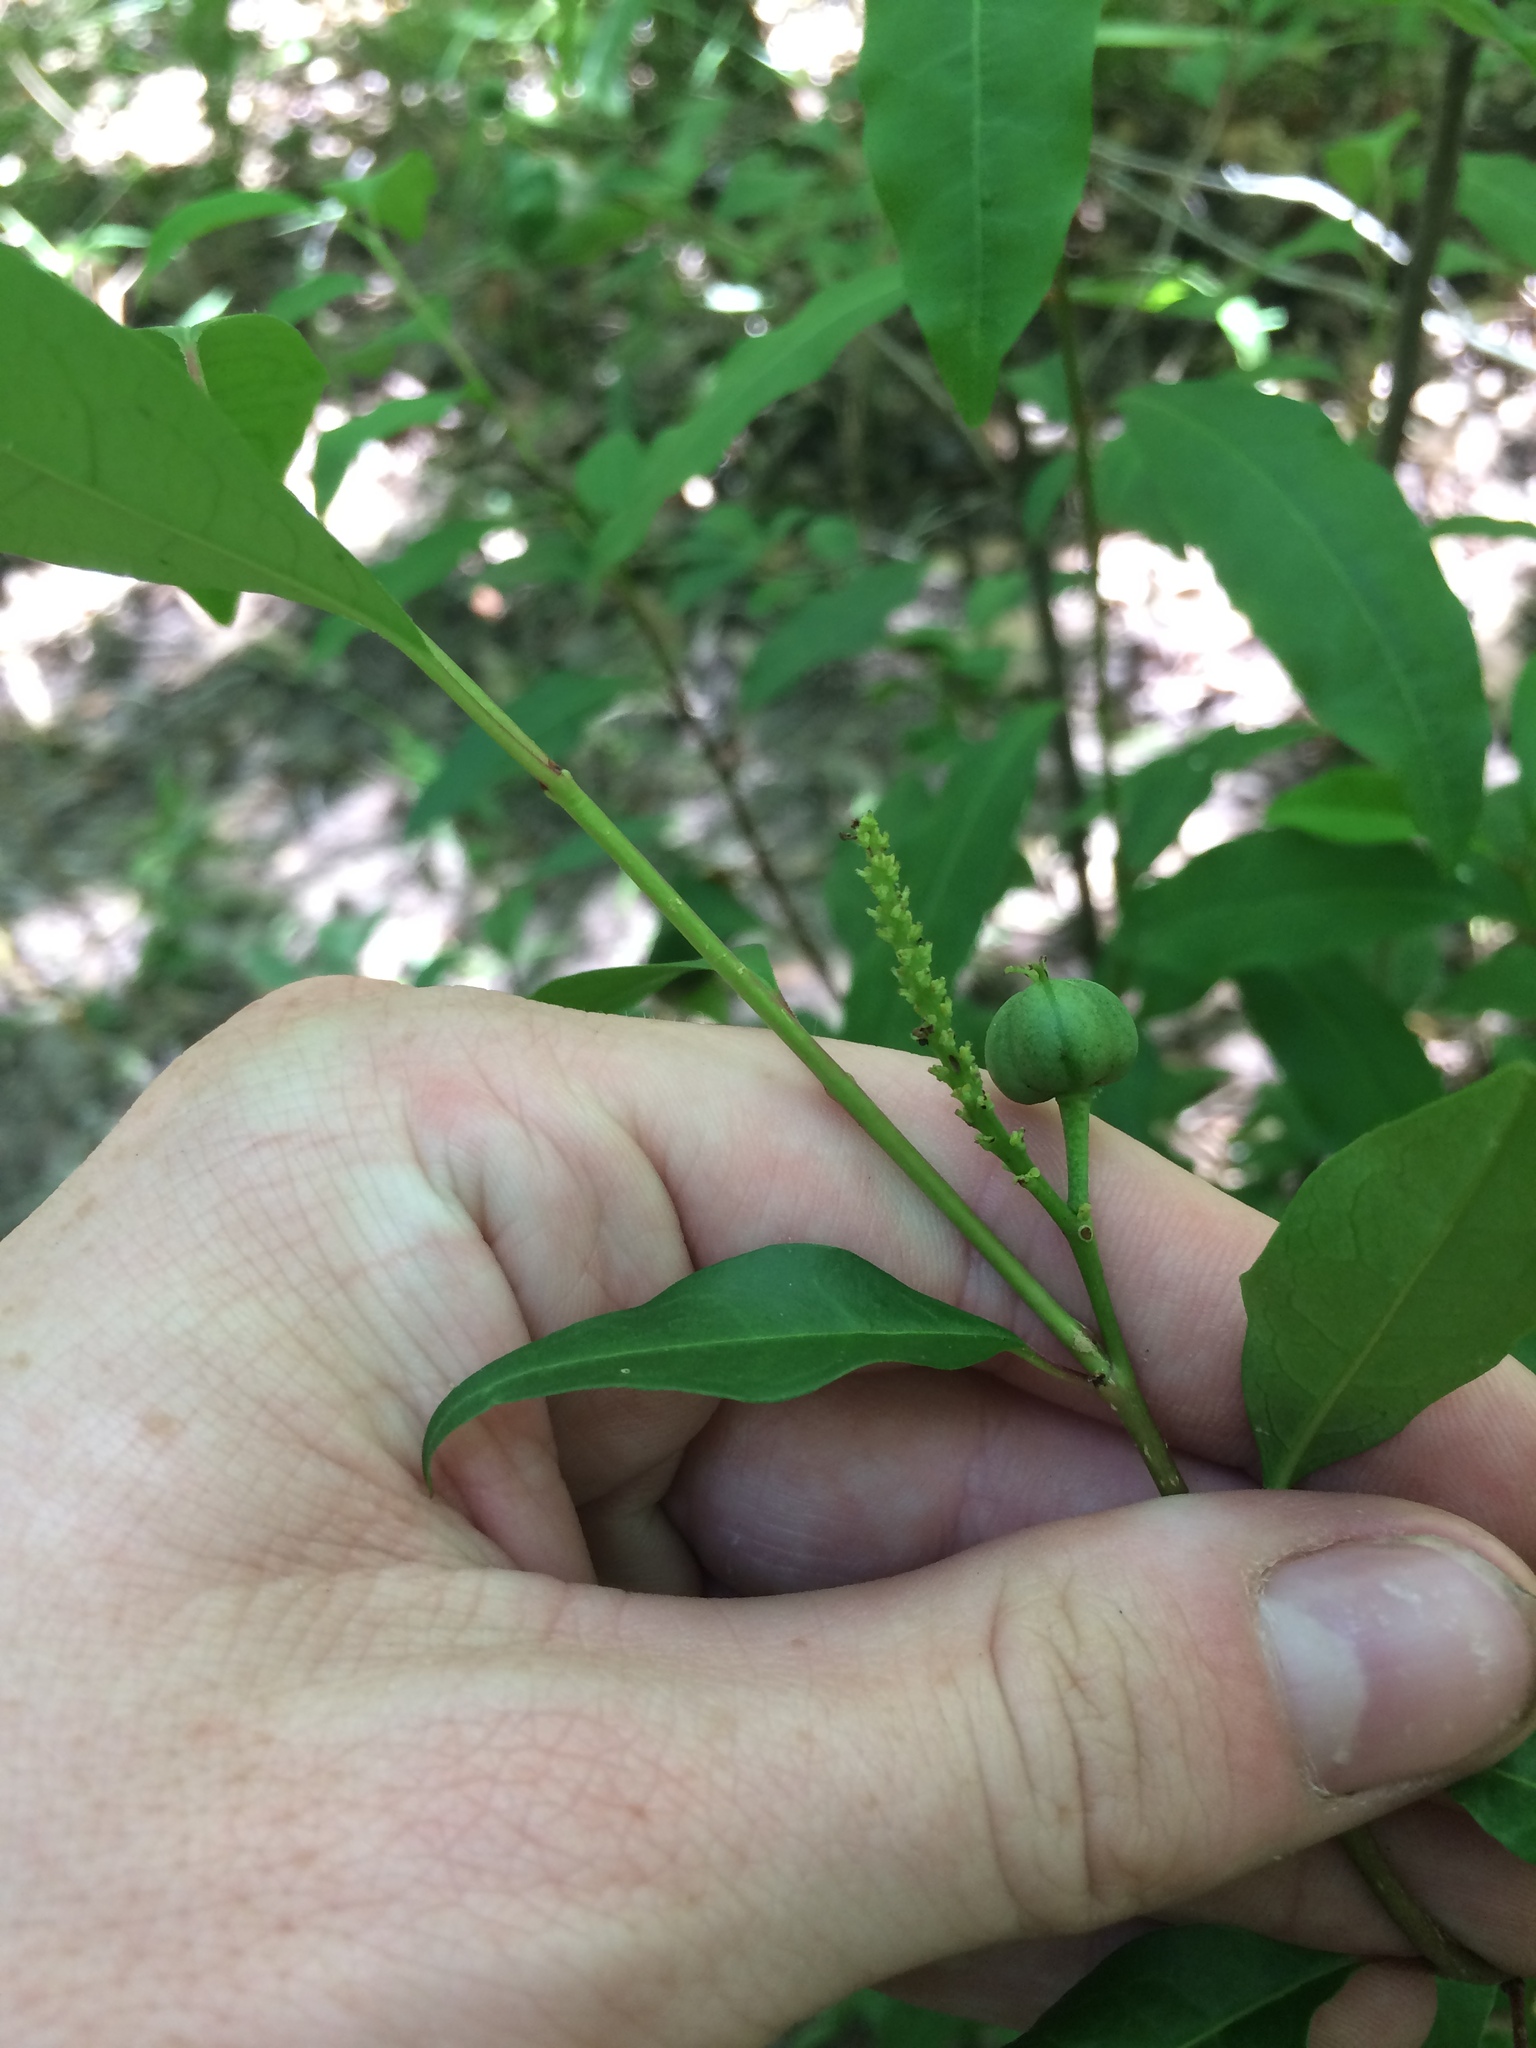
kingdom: Plantae
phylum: Tracheophyta
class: Magnoliopsida
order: Malpighiales
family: Euphorbiaceae
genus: Ditrysinia
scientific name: Ditrysinia fruticosa
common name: Gulf sebastian-bush
